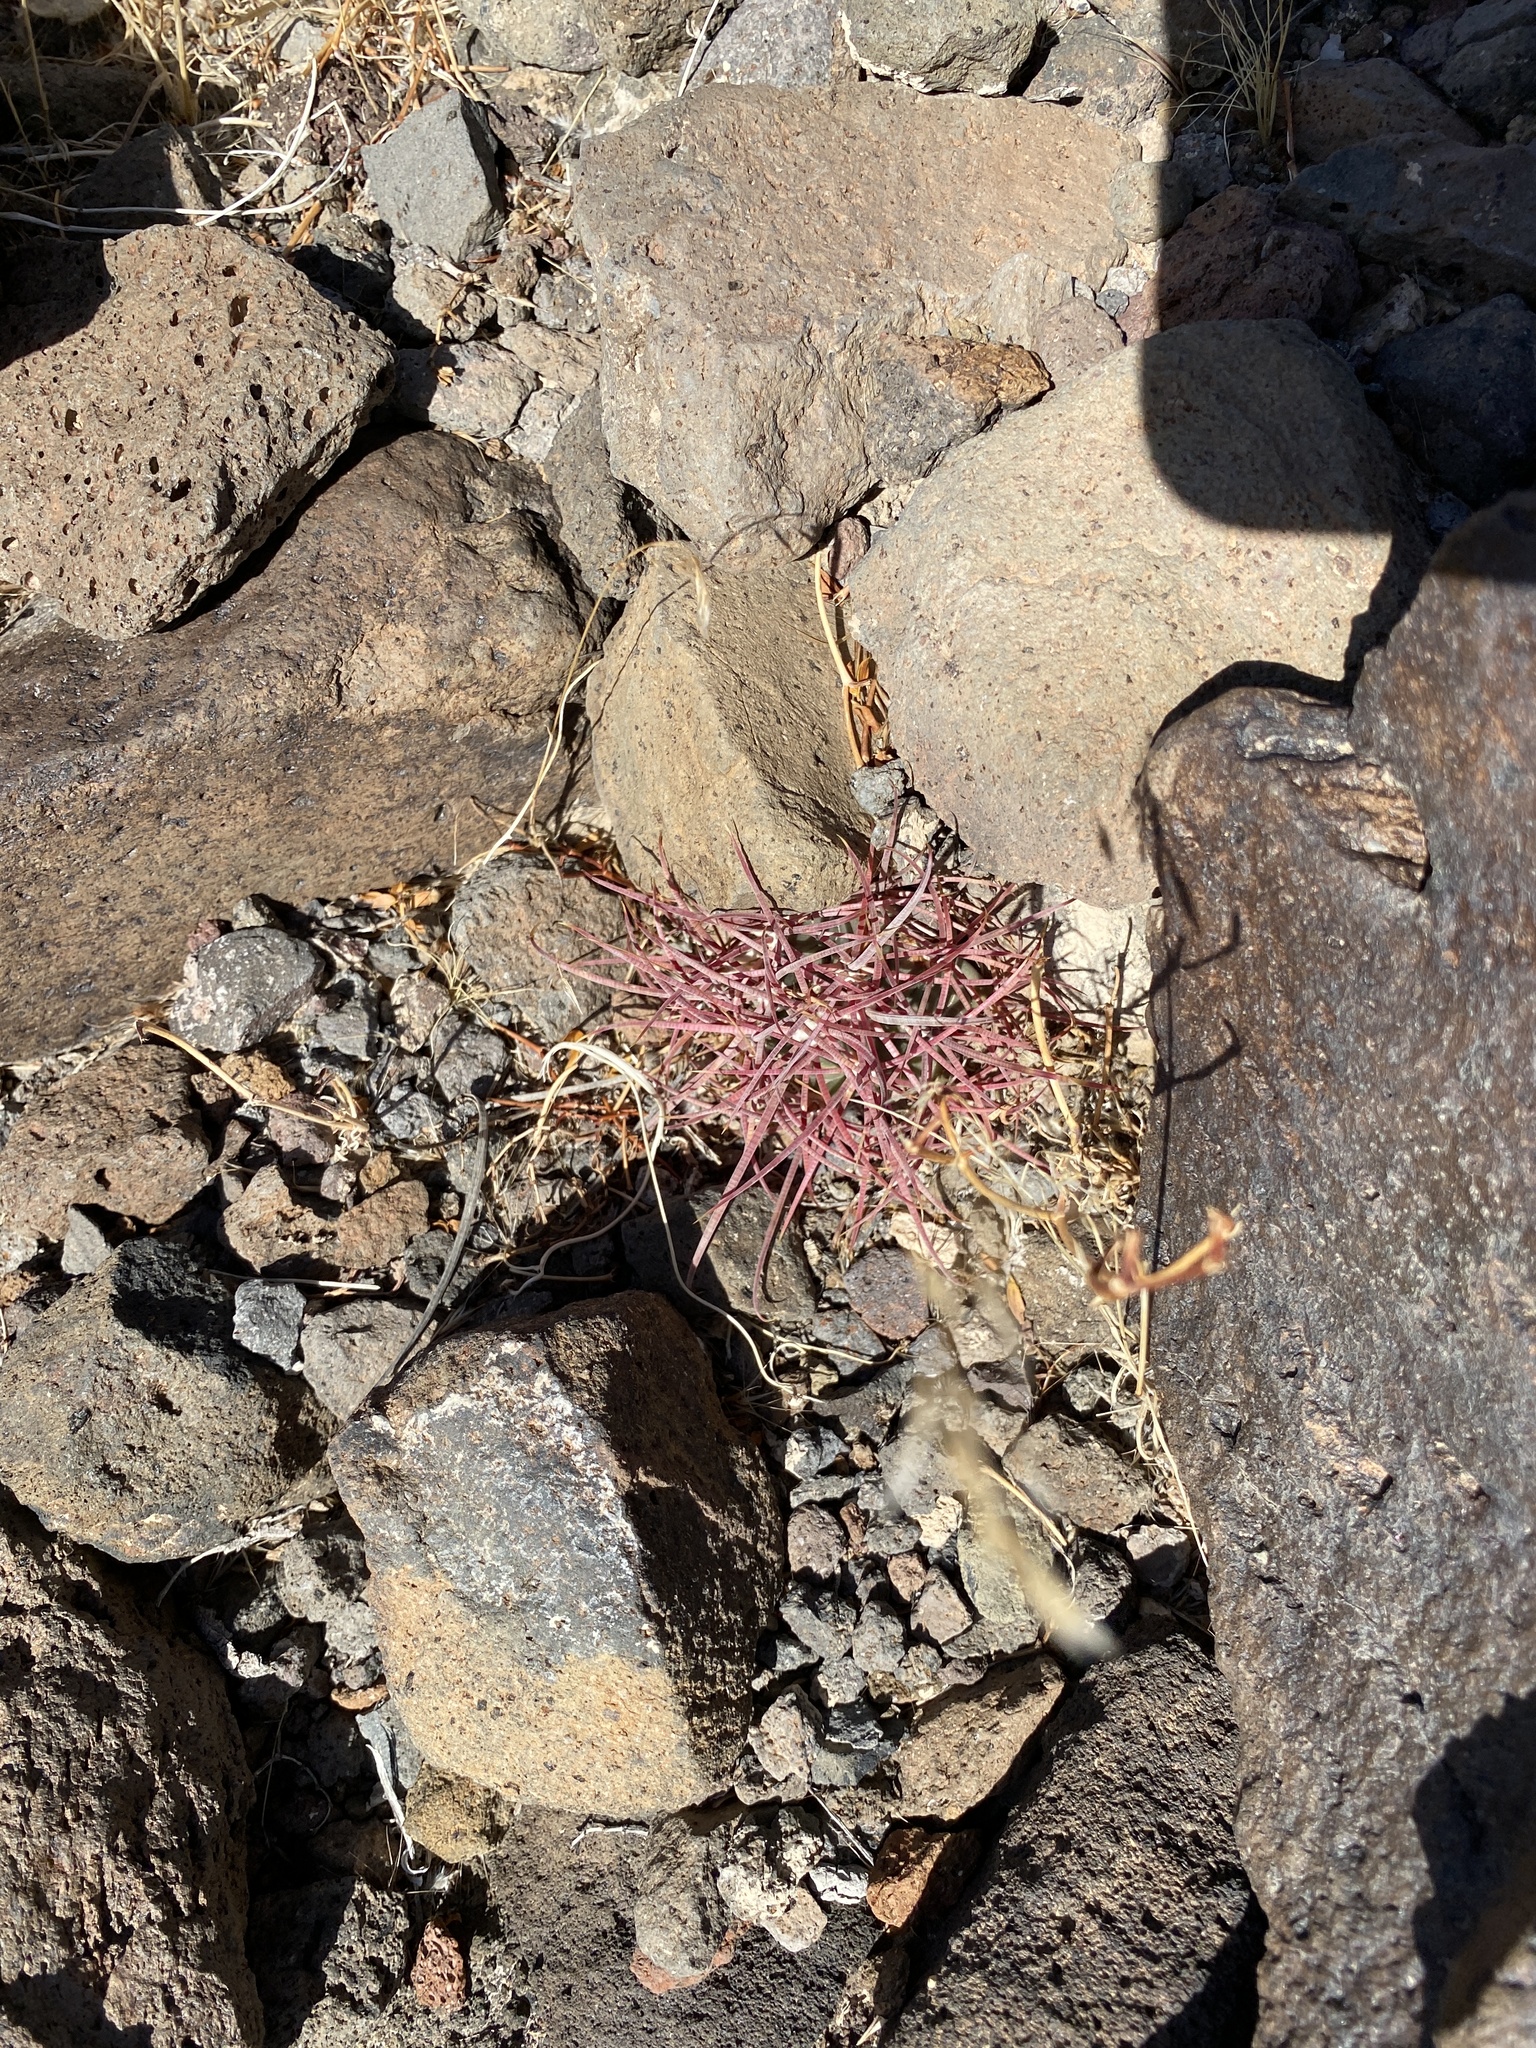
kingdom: Plantae
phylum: Tracheophyta
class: Magnoliopsida
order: Caryophyllales
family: Cactaceae
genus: Ferocactus
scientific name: Ferocactus cylindraceus
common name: California barrel cactus
